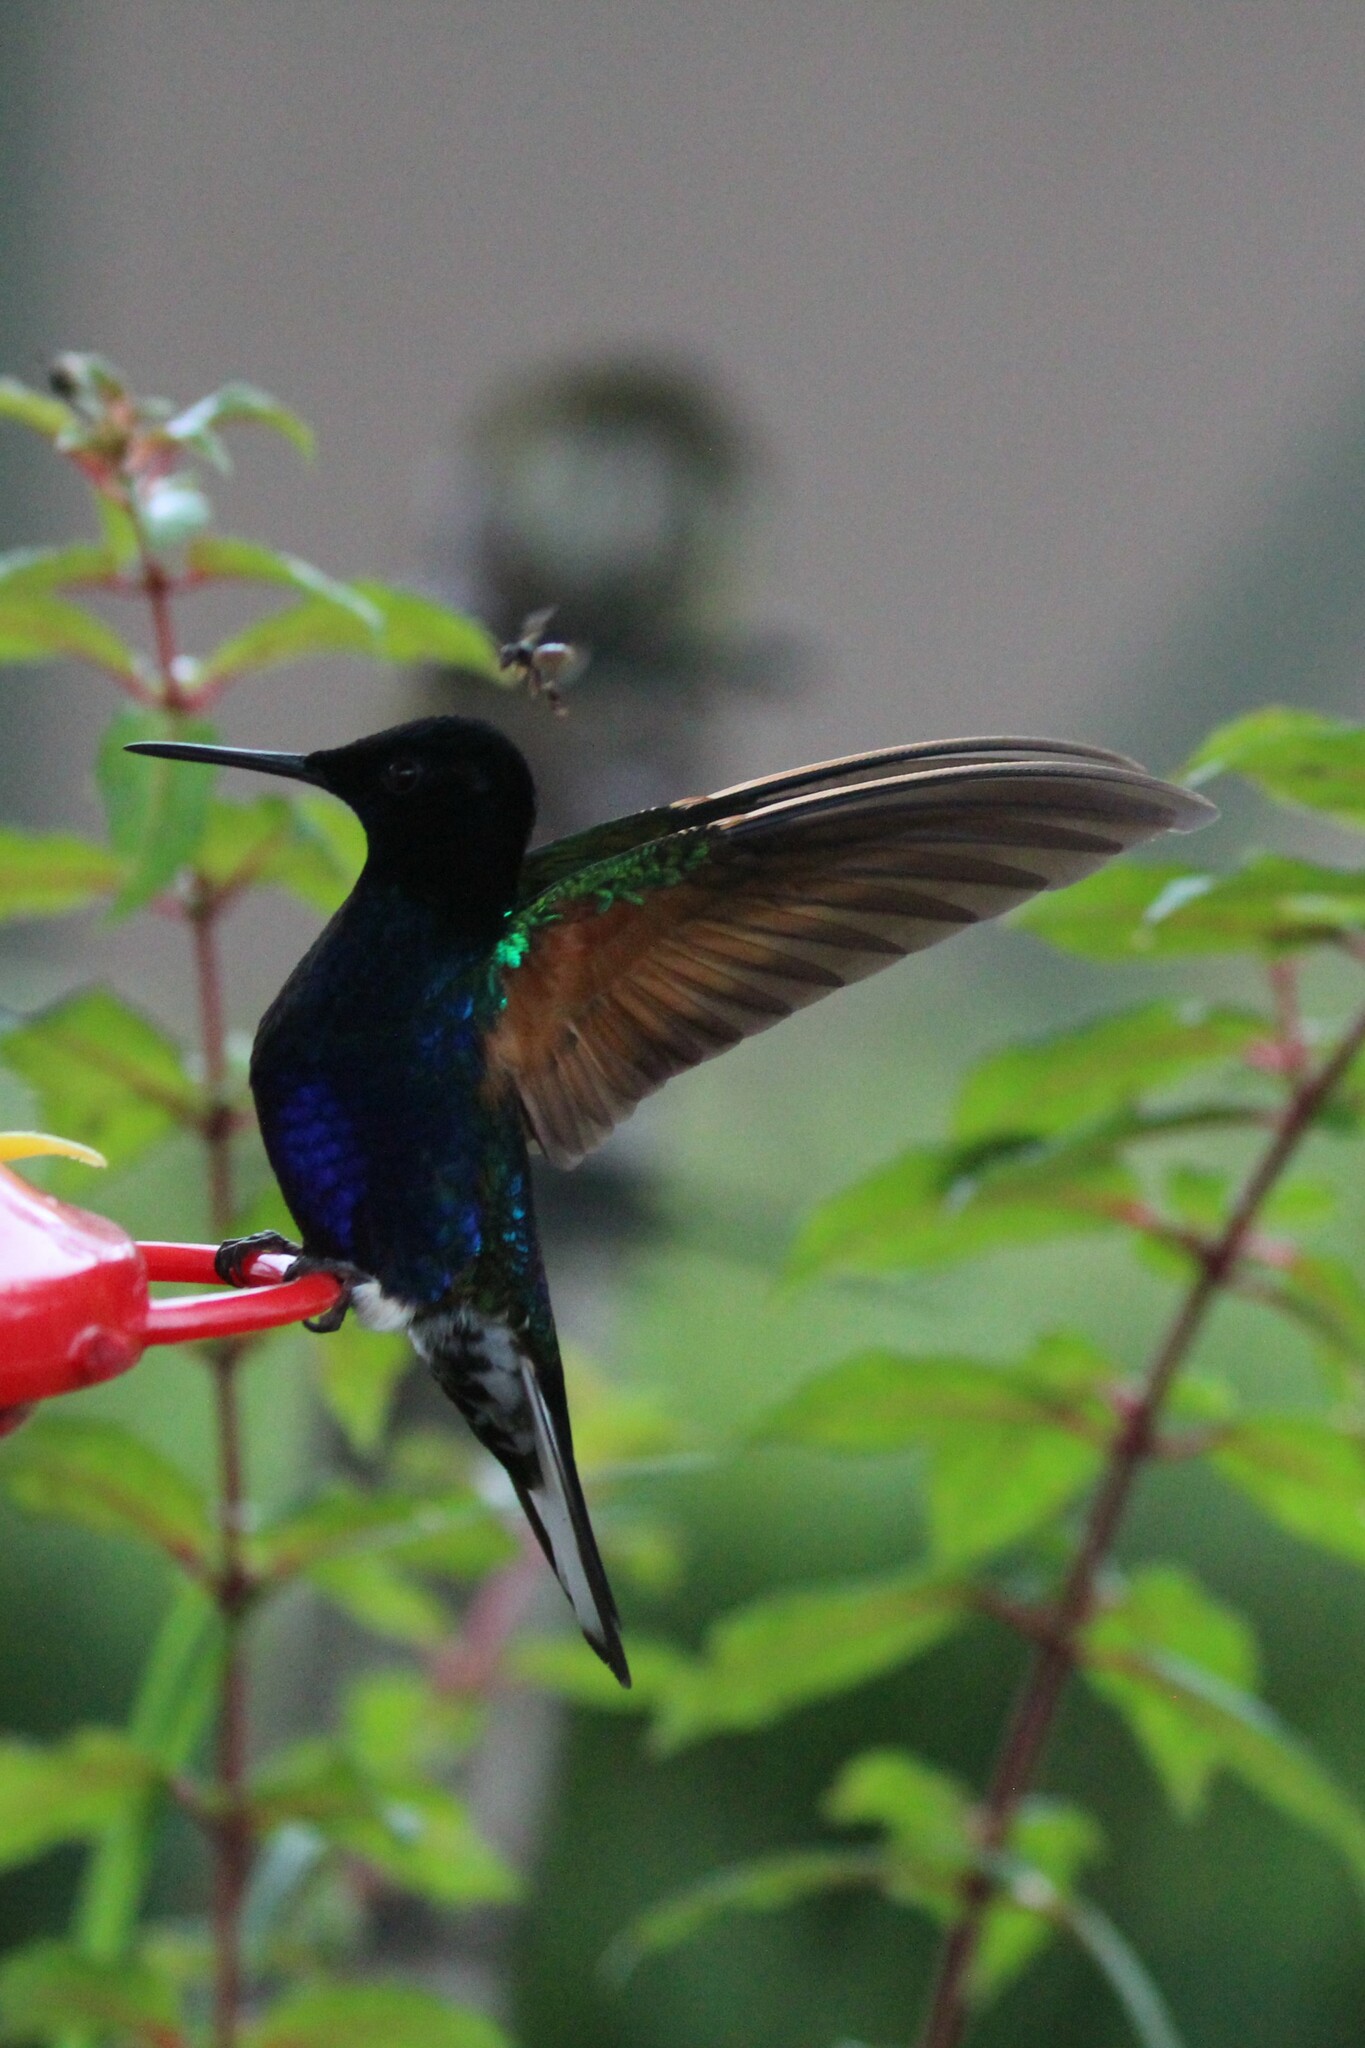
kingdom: Animalia
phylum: Chordata
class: Aves
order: Apodiformes
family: Trochilidae
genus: Boissonneaua
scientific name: Boissonneaua jardini
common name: Velvet-purple coronet
